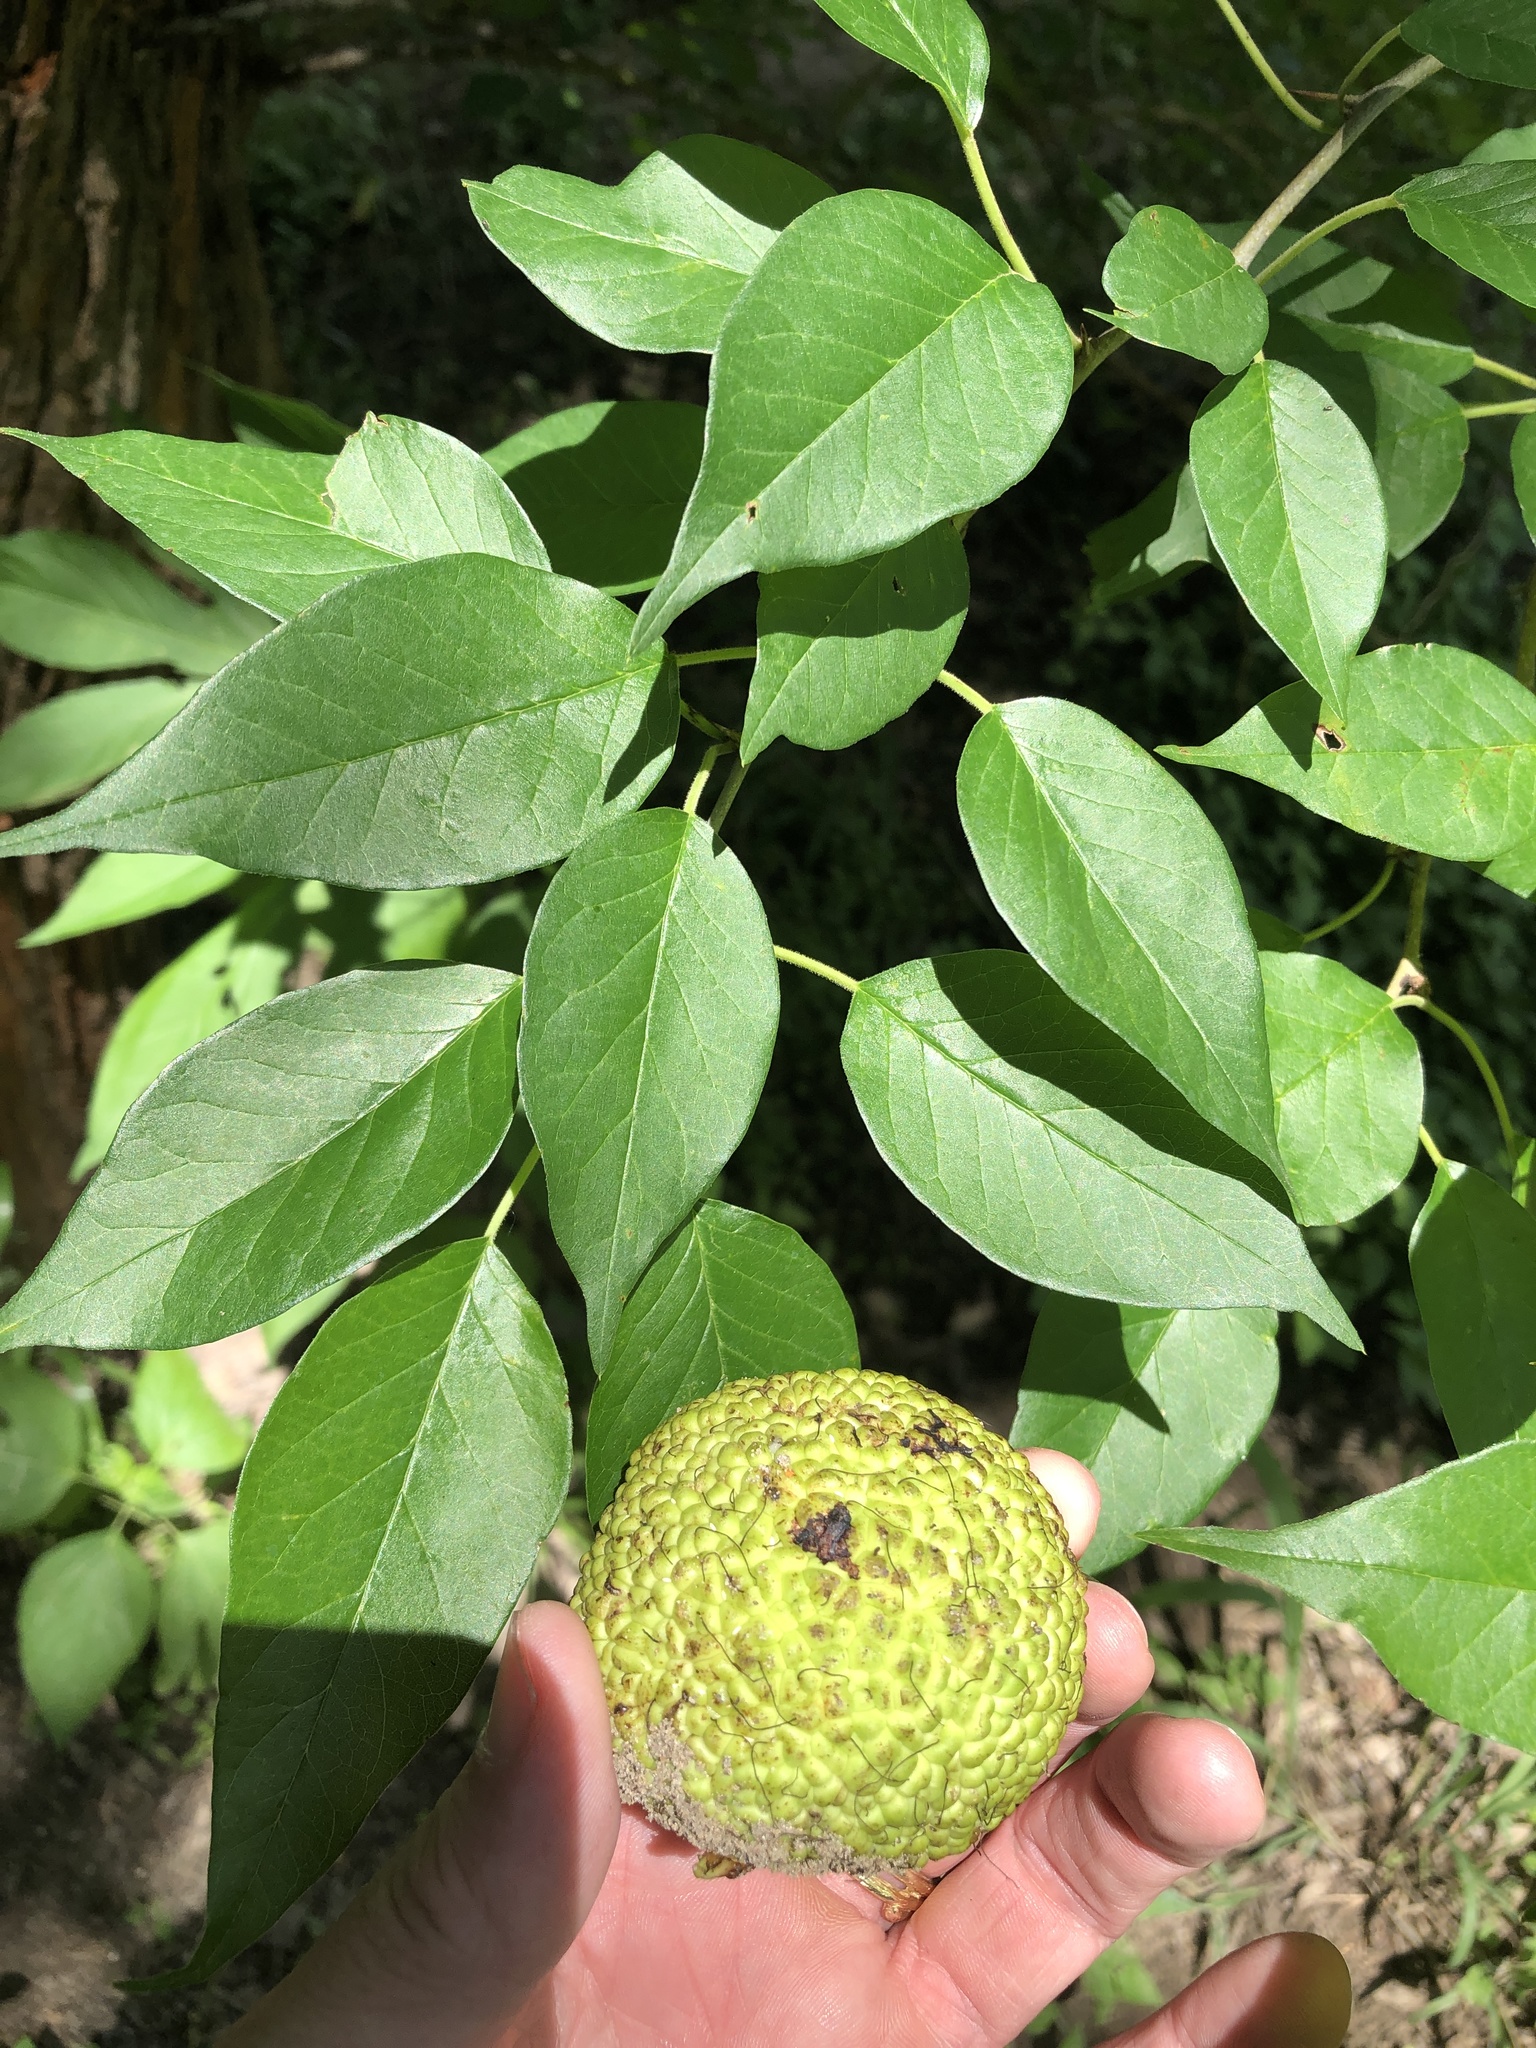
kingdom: Plantae
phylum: Tracheophyta
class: Magnoliopsida
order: Rosales
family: Moraceae
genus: Maclura
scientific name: Maclura pomifera
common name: Osage-orange
